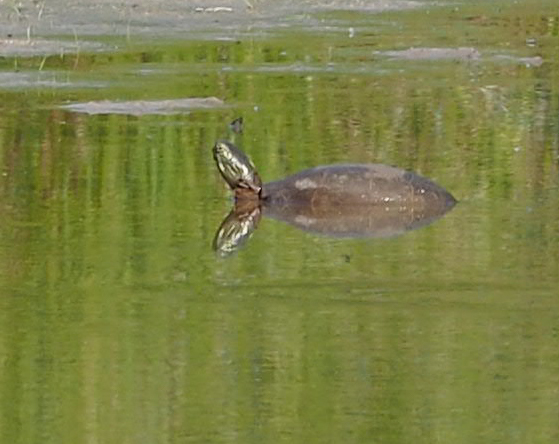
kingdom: Animalia
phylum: Chordata
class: Testudines
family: Emydidae
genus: Chrysemys
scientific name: Chrysemys picta
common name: Painted turtle
